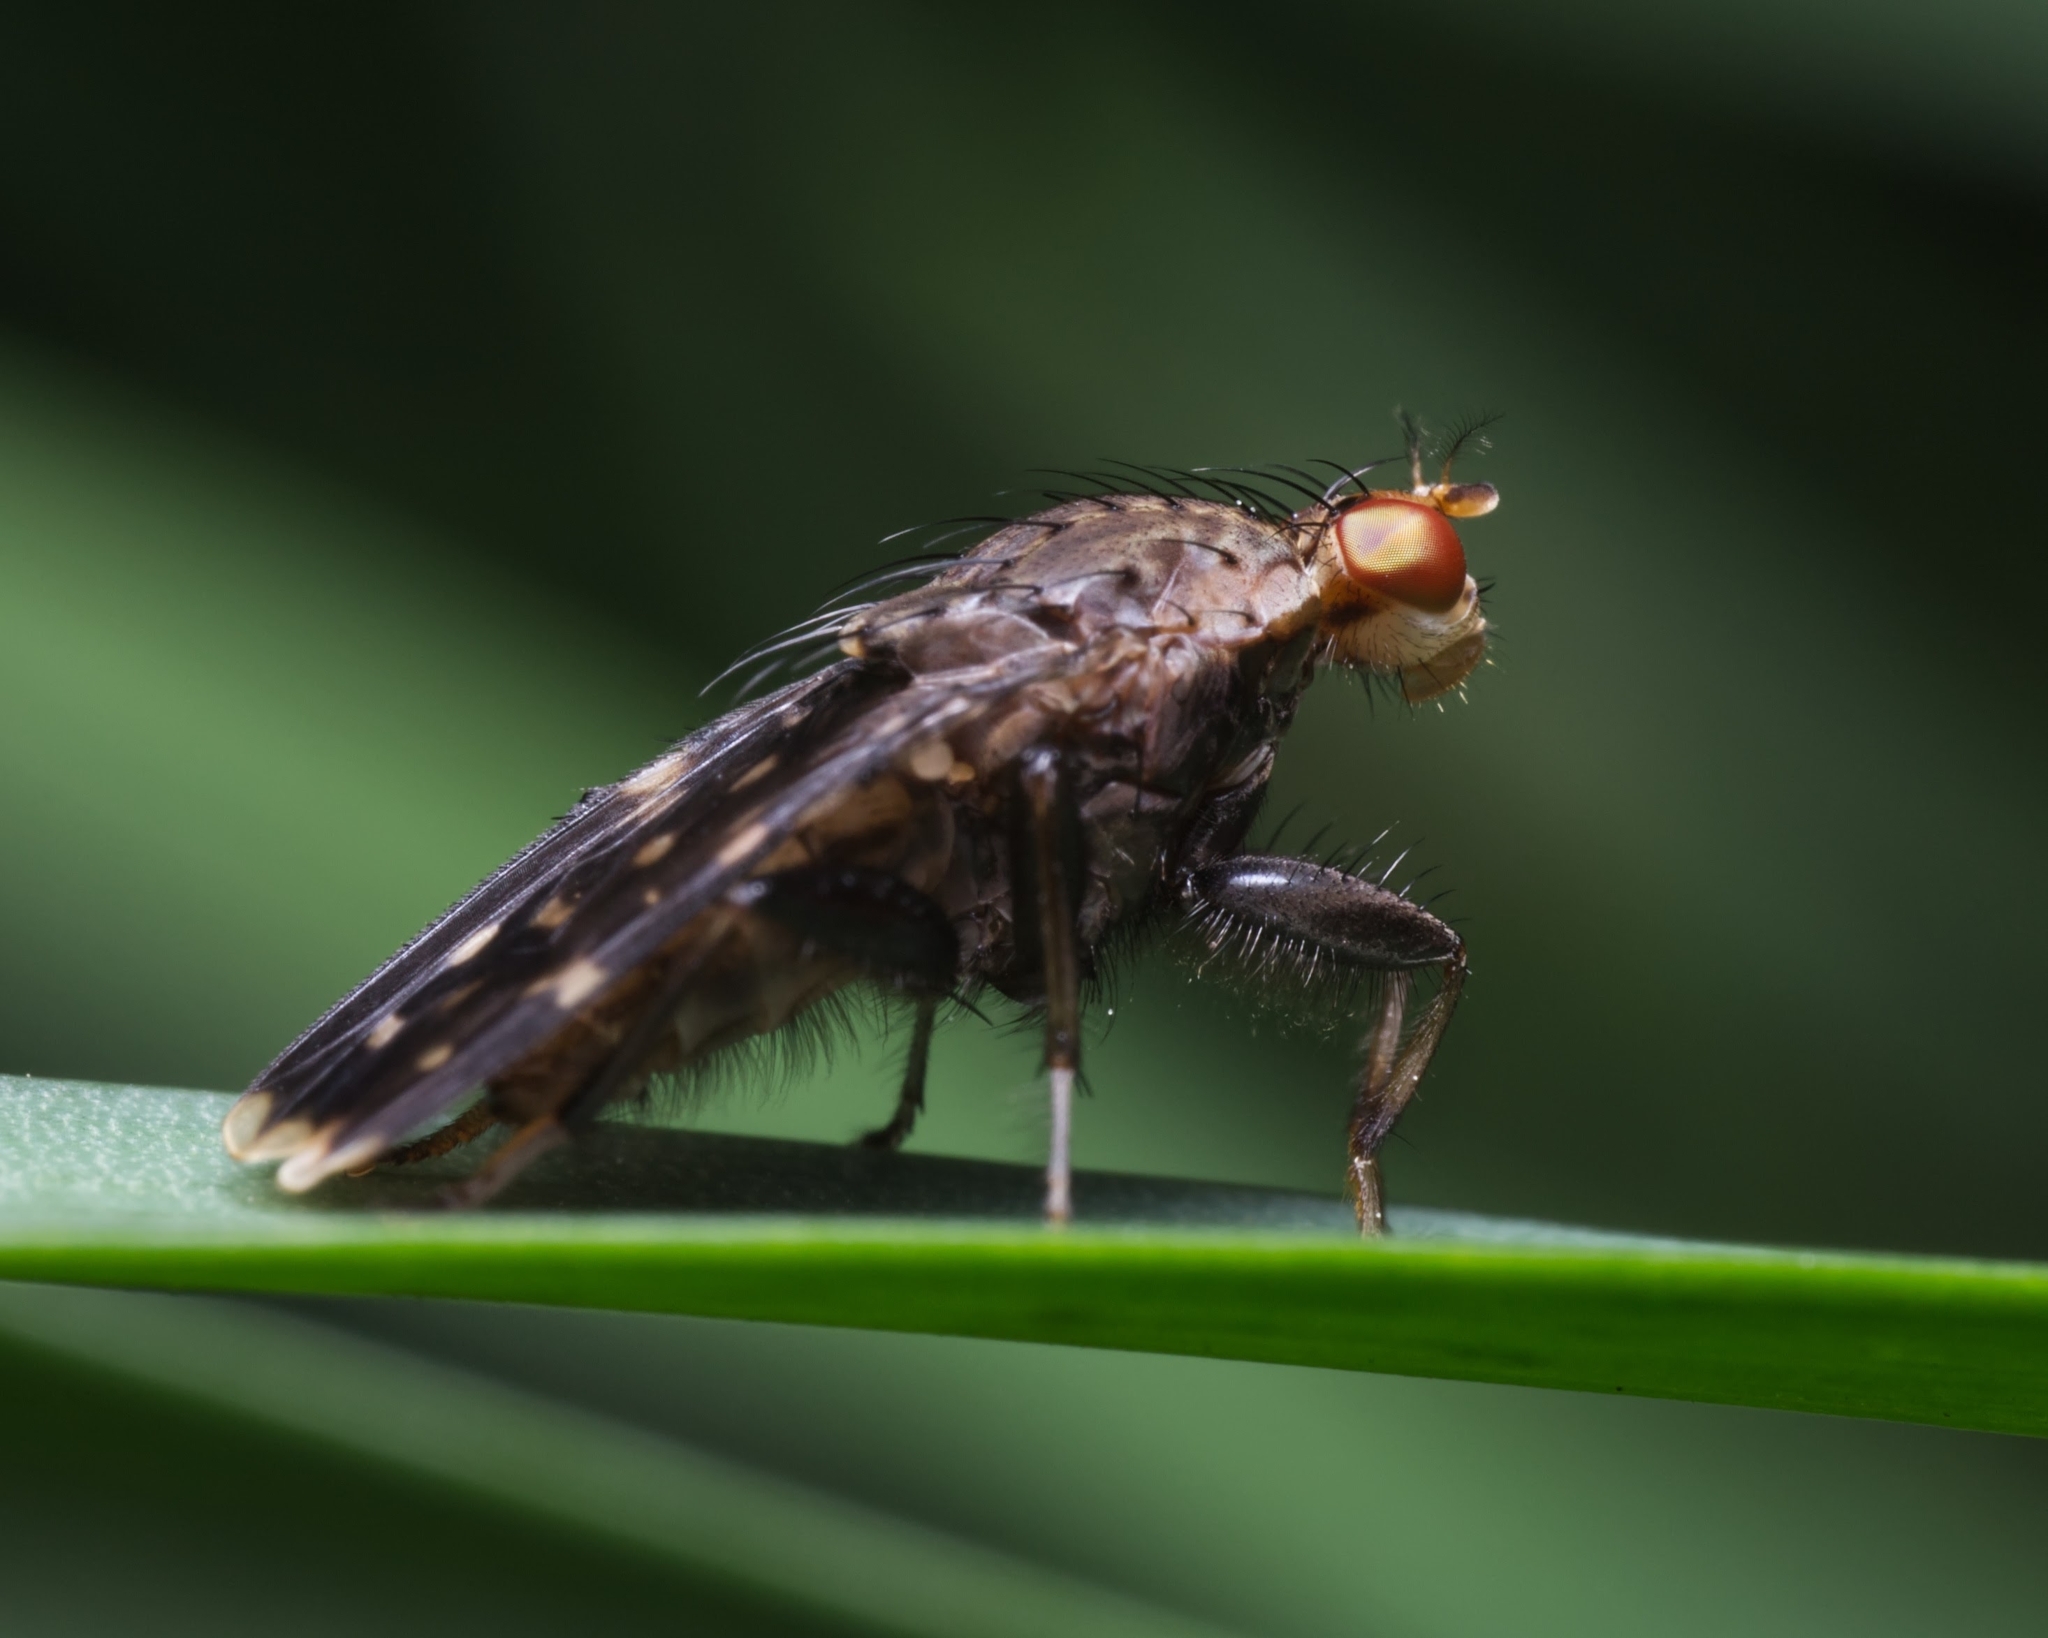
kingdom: Animalia
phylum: Arthropoda
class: Insecta
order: Diptera
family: Heleomyzidae
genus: Suillia
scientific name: Suillia picta
